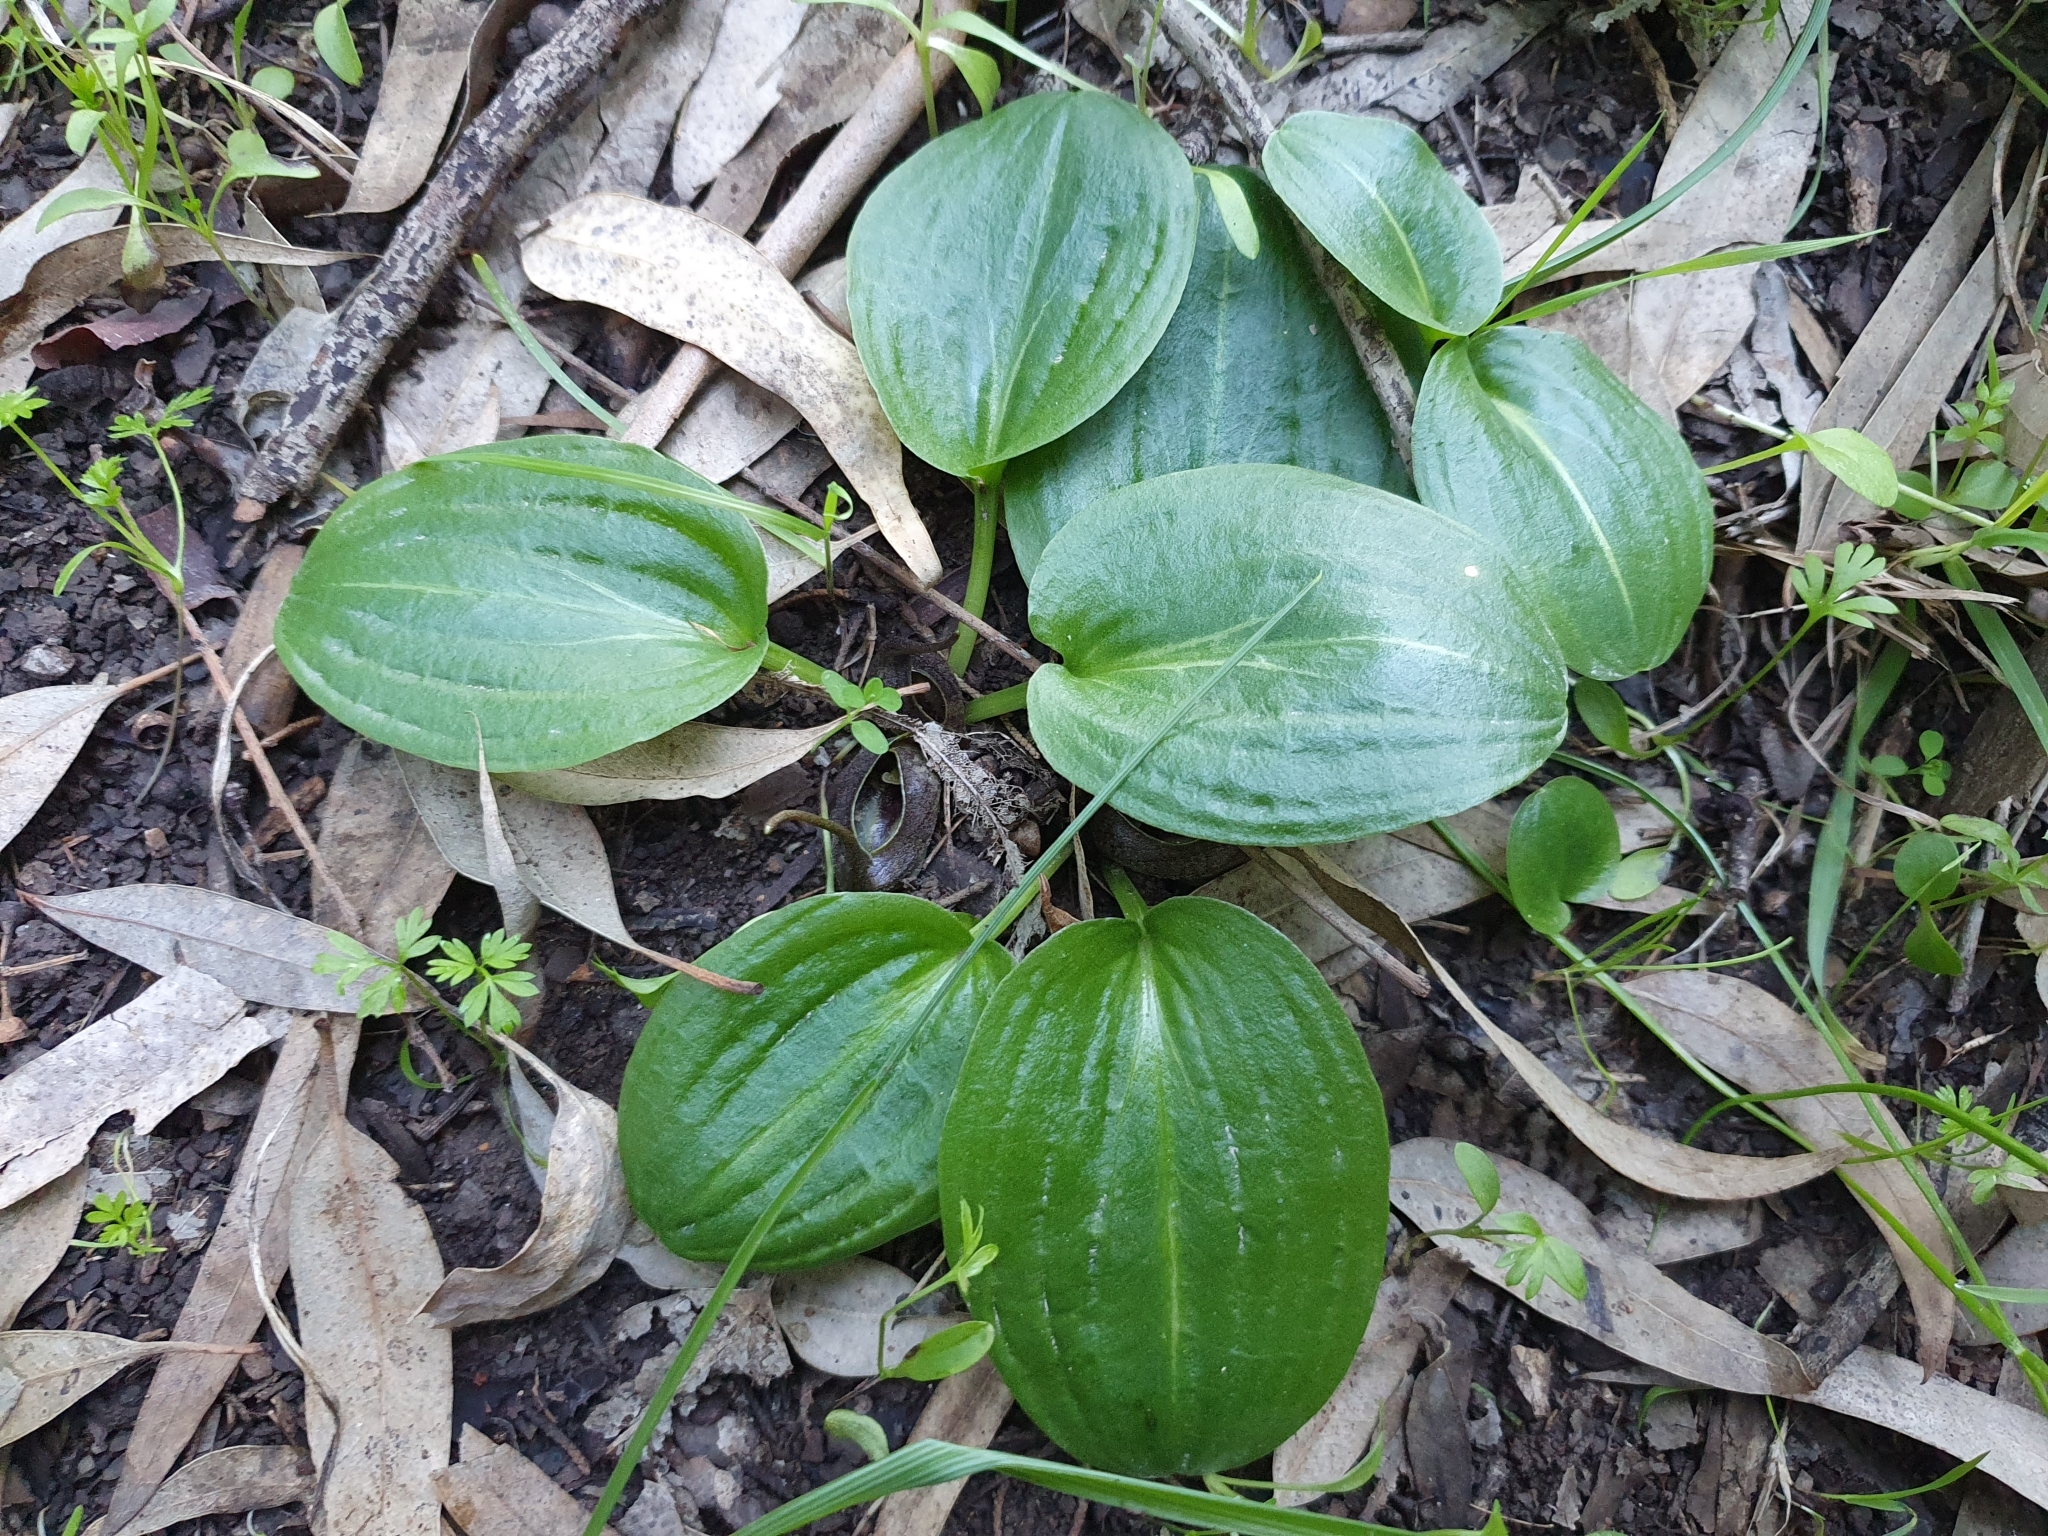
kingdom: Plantae
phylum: Tracheophyta
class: Liliopsida
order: Alismatales
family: Araceae
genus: Ambrosina
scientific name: Ambrosina bassii
